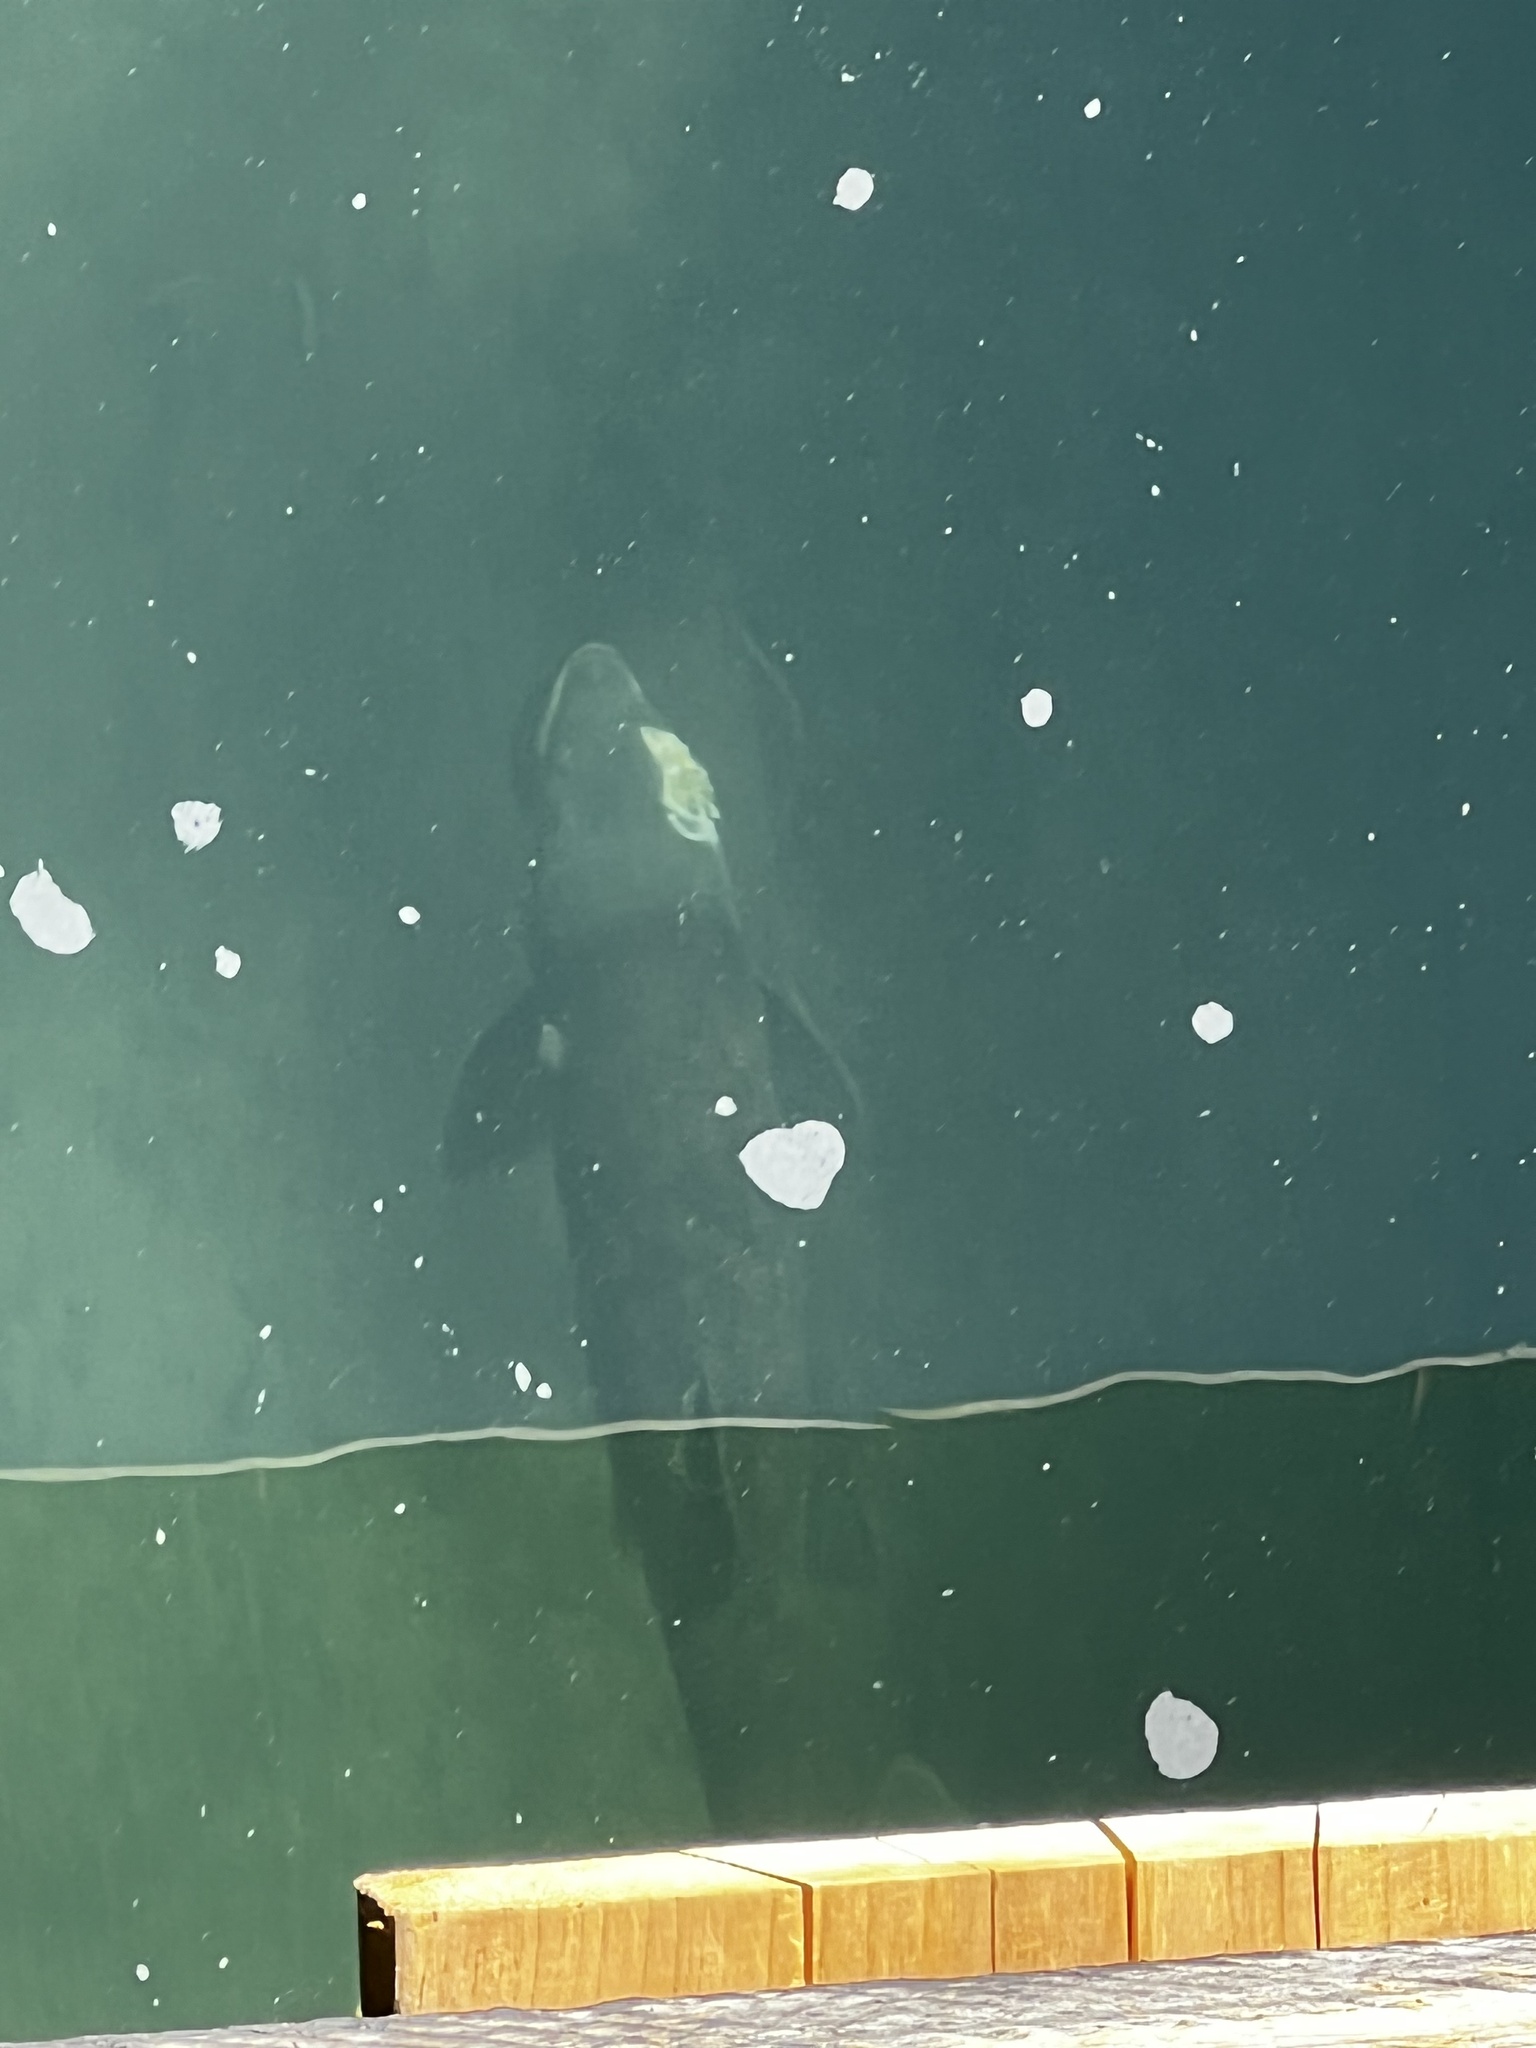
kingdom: Animalia
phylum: Chordata
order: Salmoniformes
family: Salmonidae
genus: Oncorhynchus
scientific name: Oncorhynchus tshawytscha
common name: Chinook salmon
